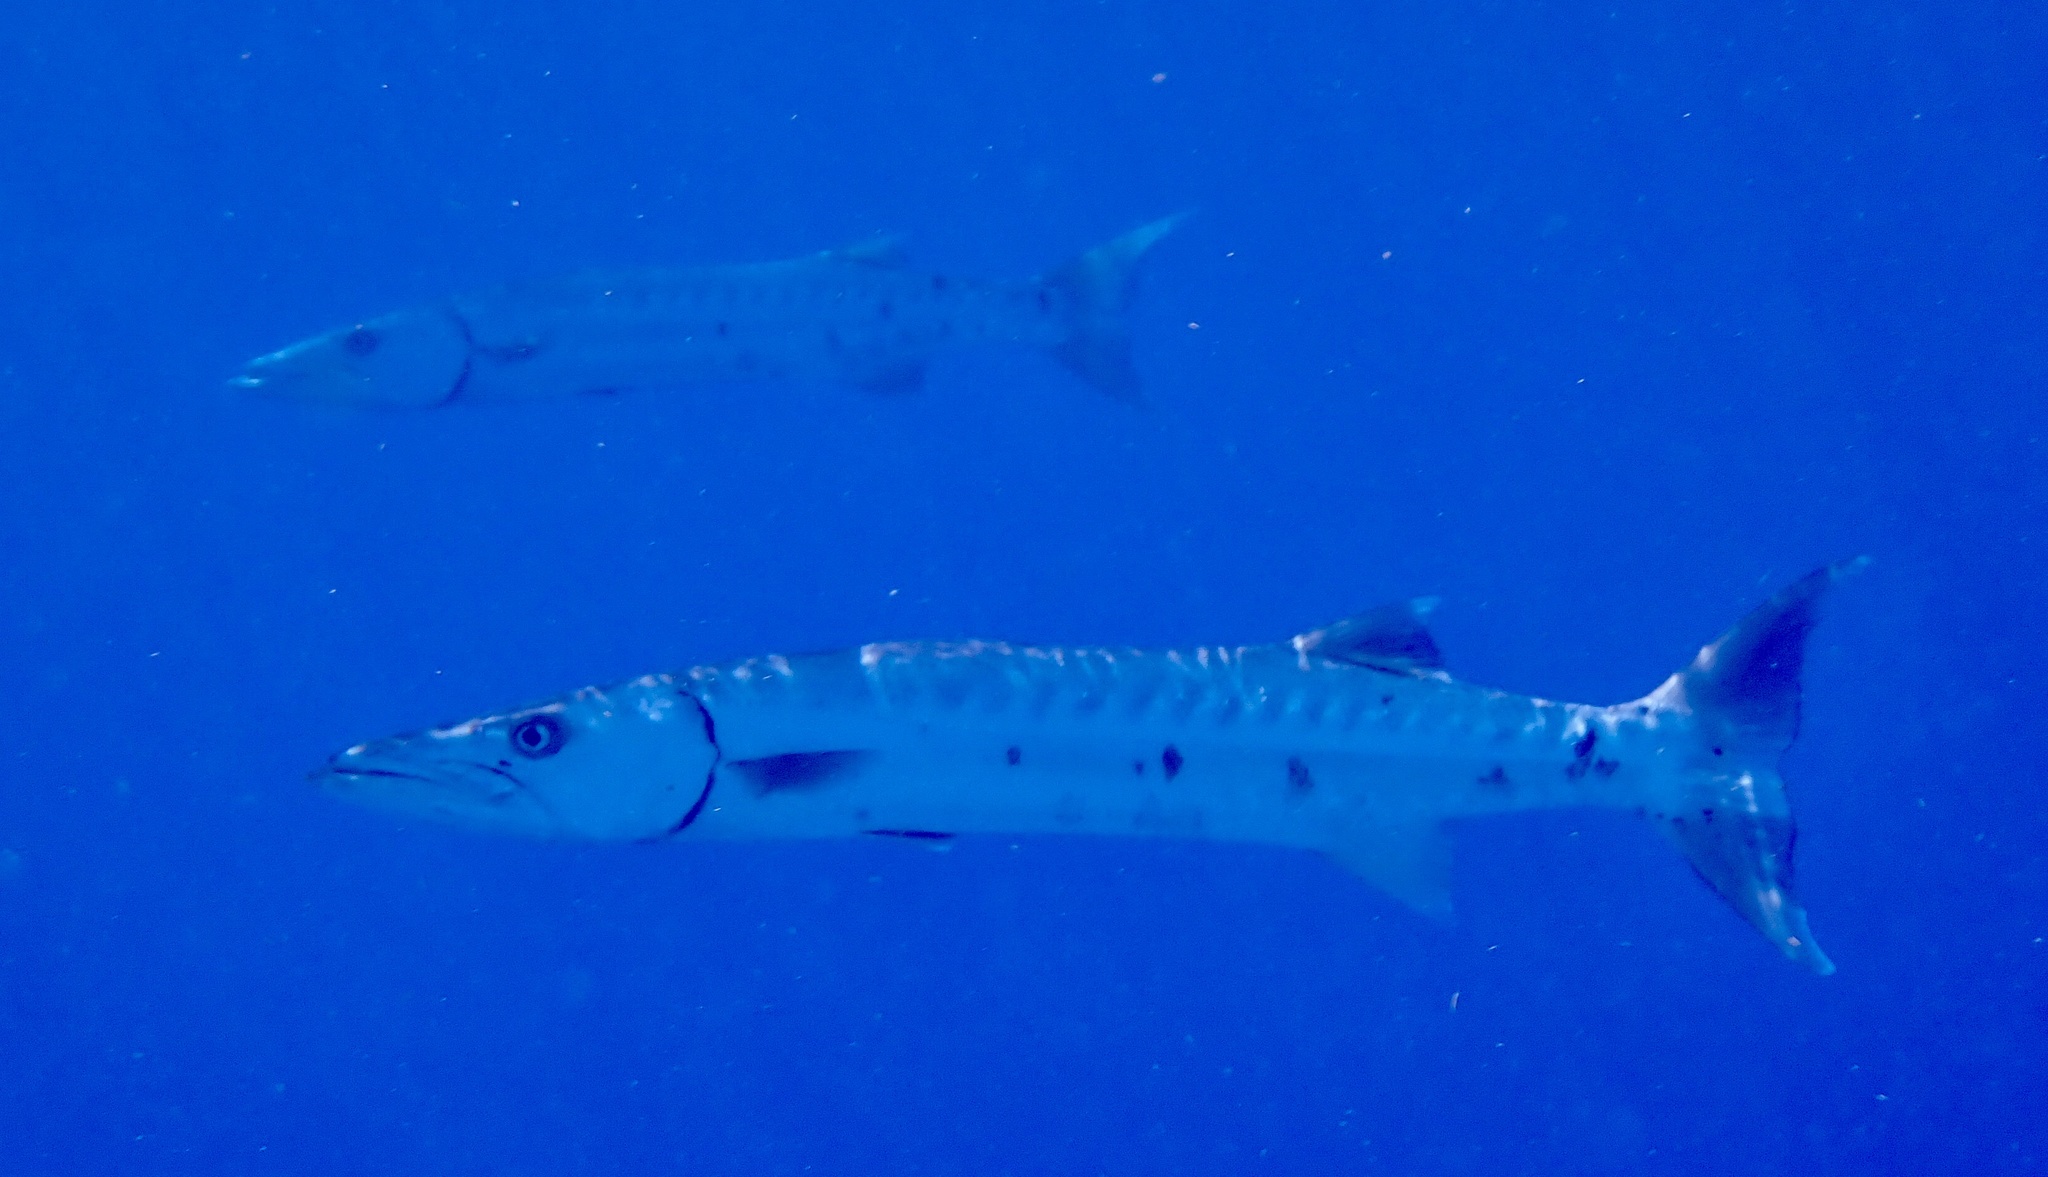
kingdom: Animalia
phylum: Chordata
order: Perciformes
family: Sphyraenidae
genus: Sphyraena
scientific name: Sphyraena barracuda
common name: Great barracuda
